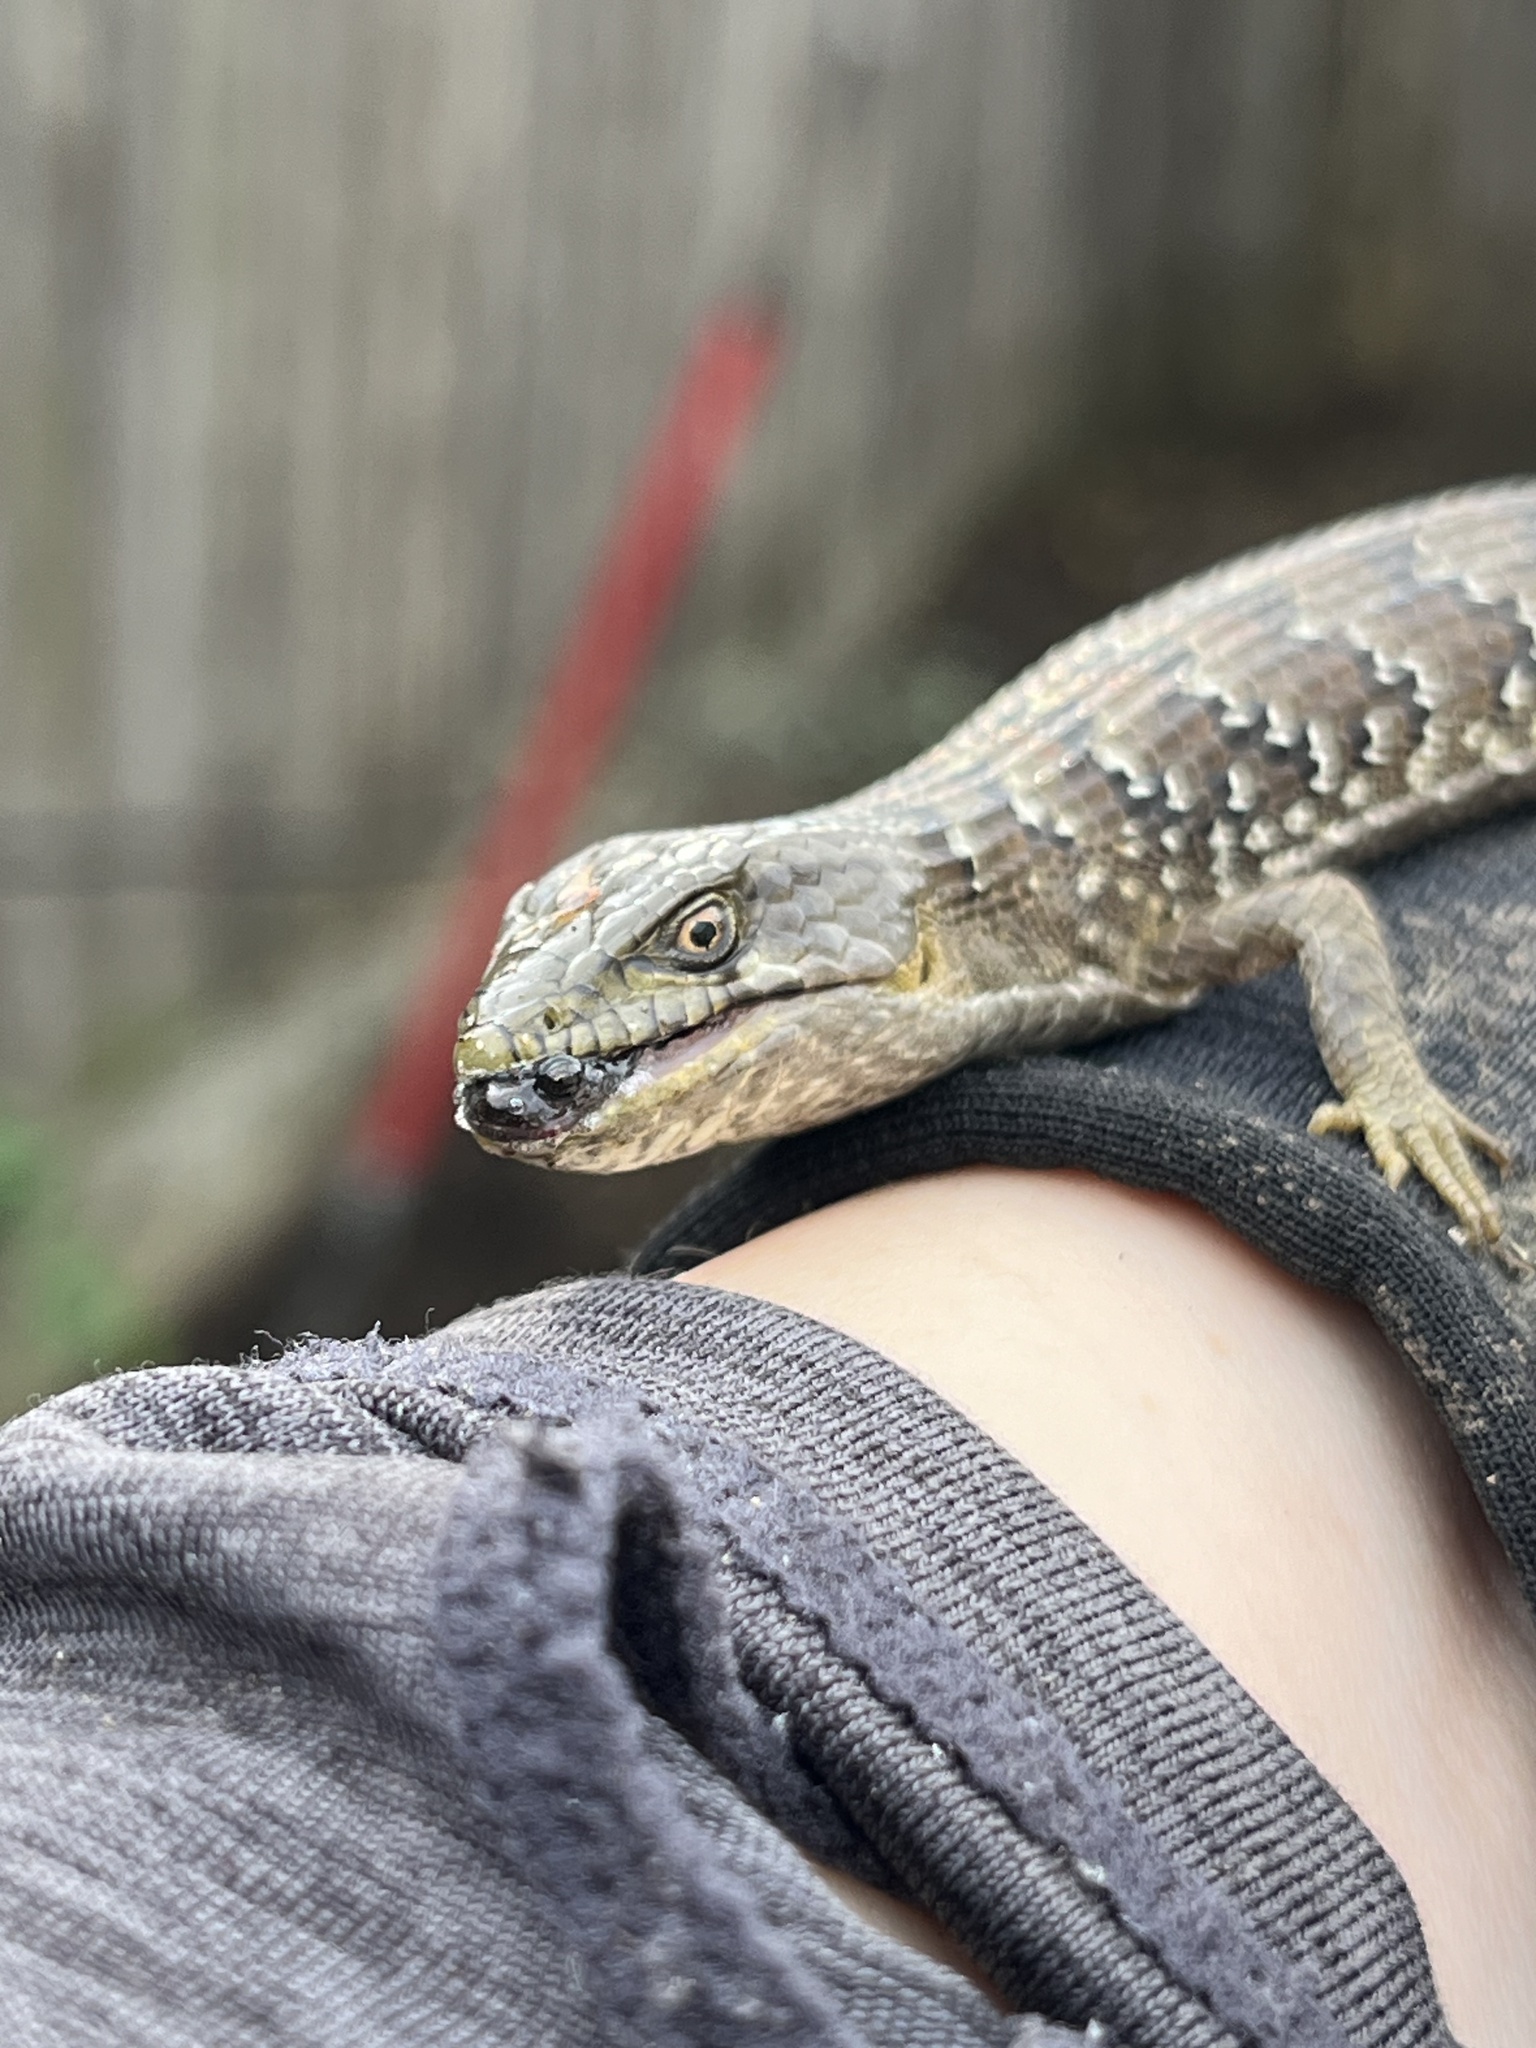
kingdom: Animalia
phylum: Chordata
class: Squamata
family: Anguidae
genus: Elgaria
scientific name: Elgaria multicarinata
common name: Southern alligator lizard
